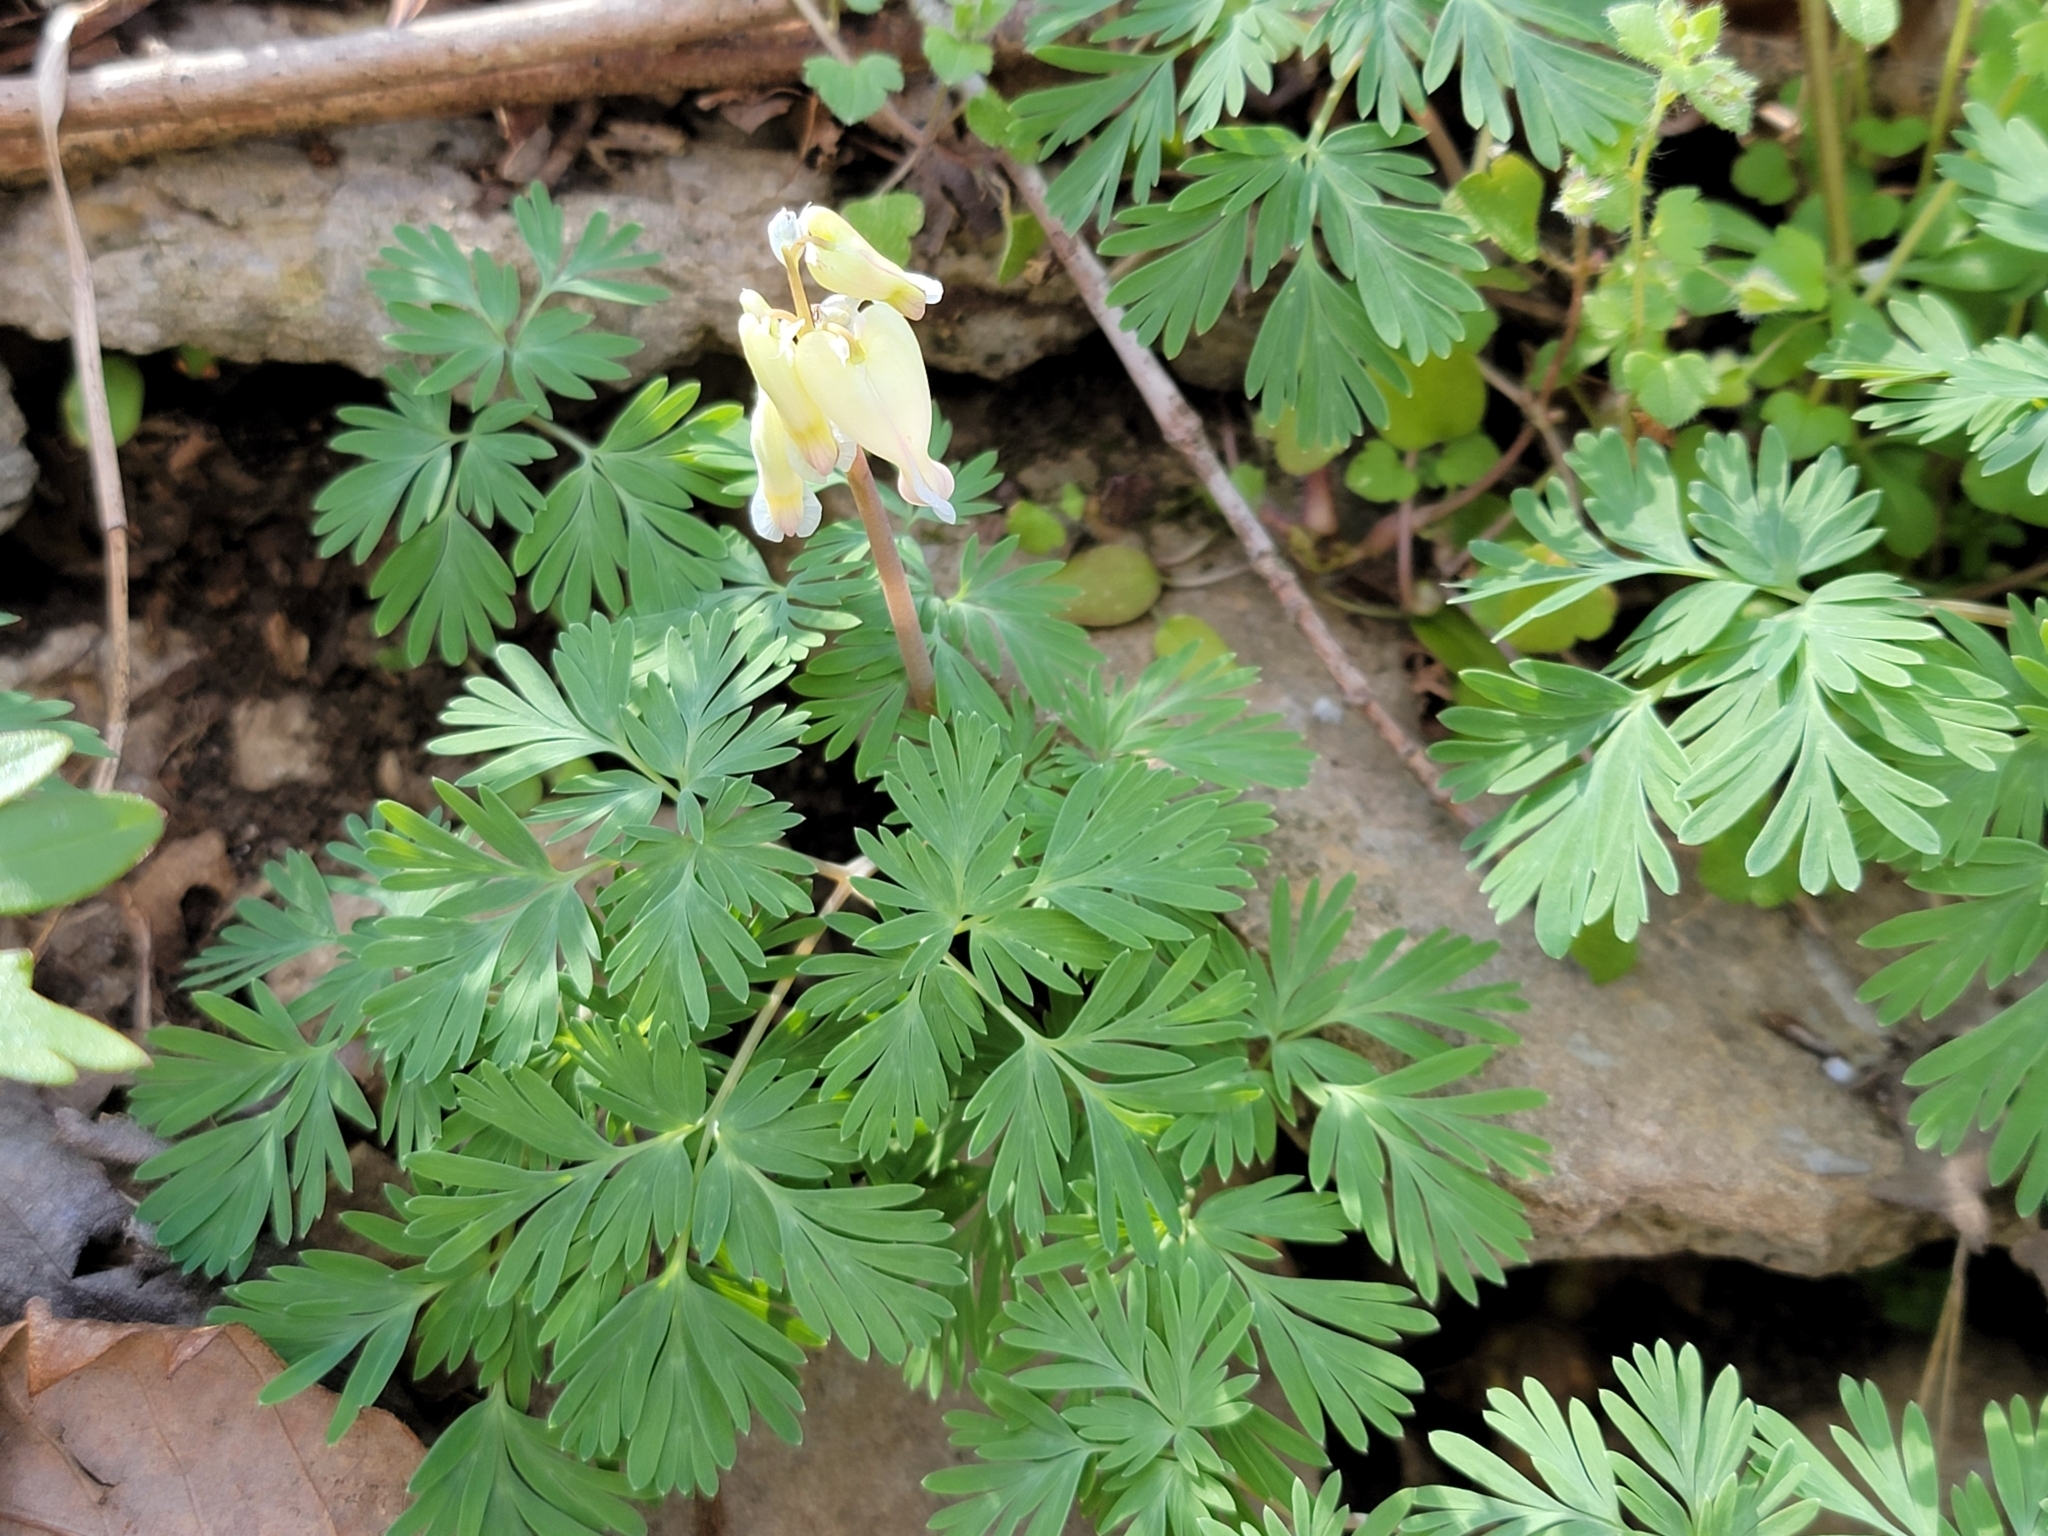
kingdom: Plantae
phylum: Tracheophyta
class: Magnoliopsida
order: Ranunculales
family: Papaveraceae
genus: Dicentra
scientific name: Dicentra canadensis
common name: Squirrel-corn
